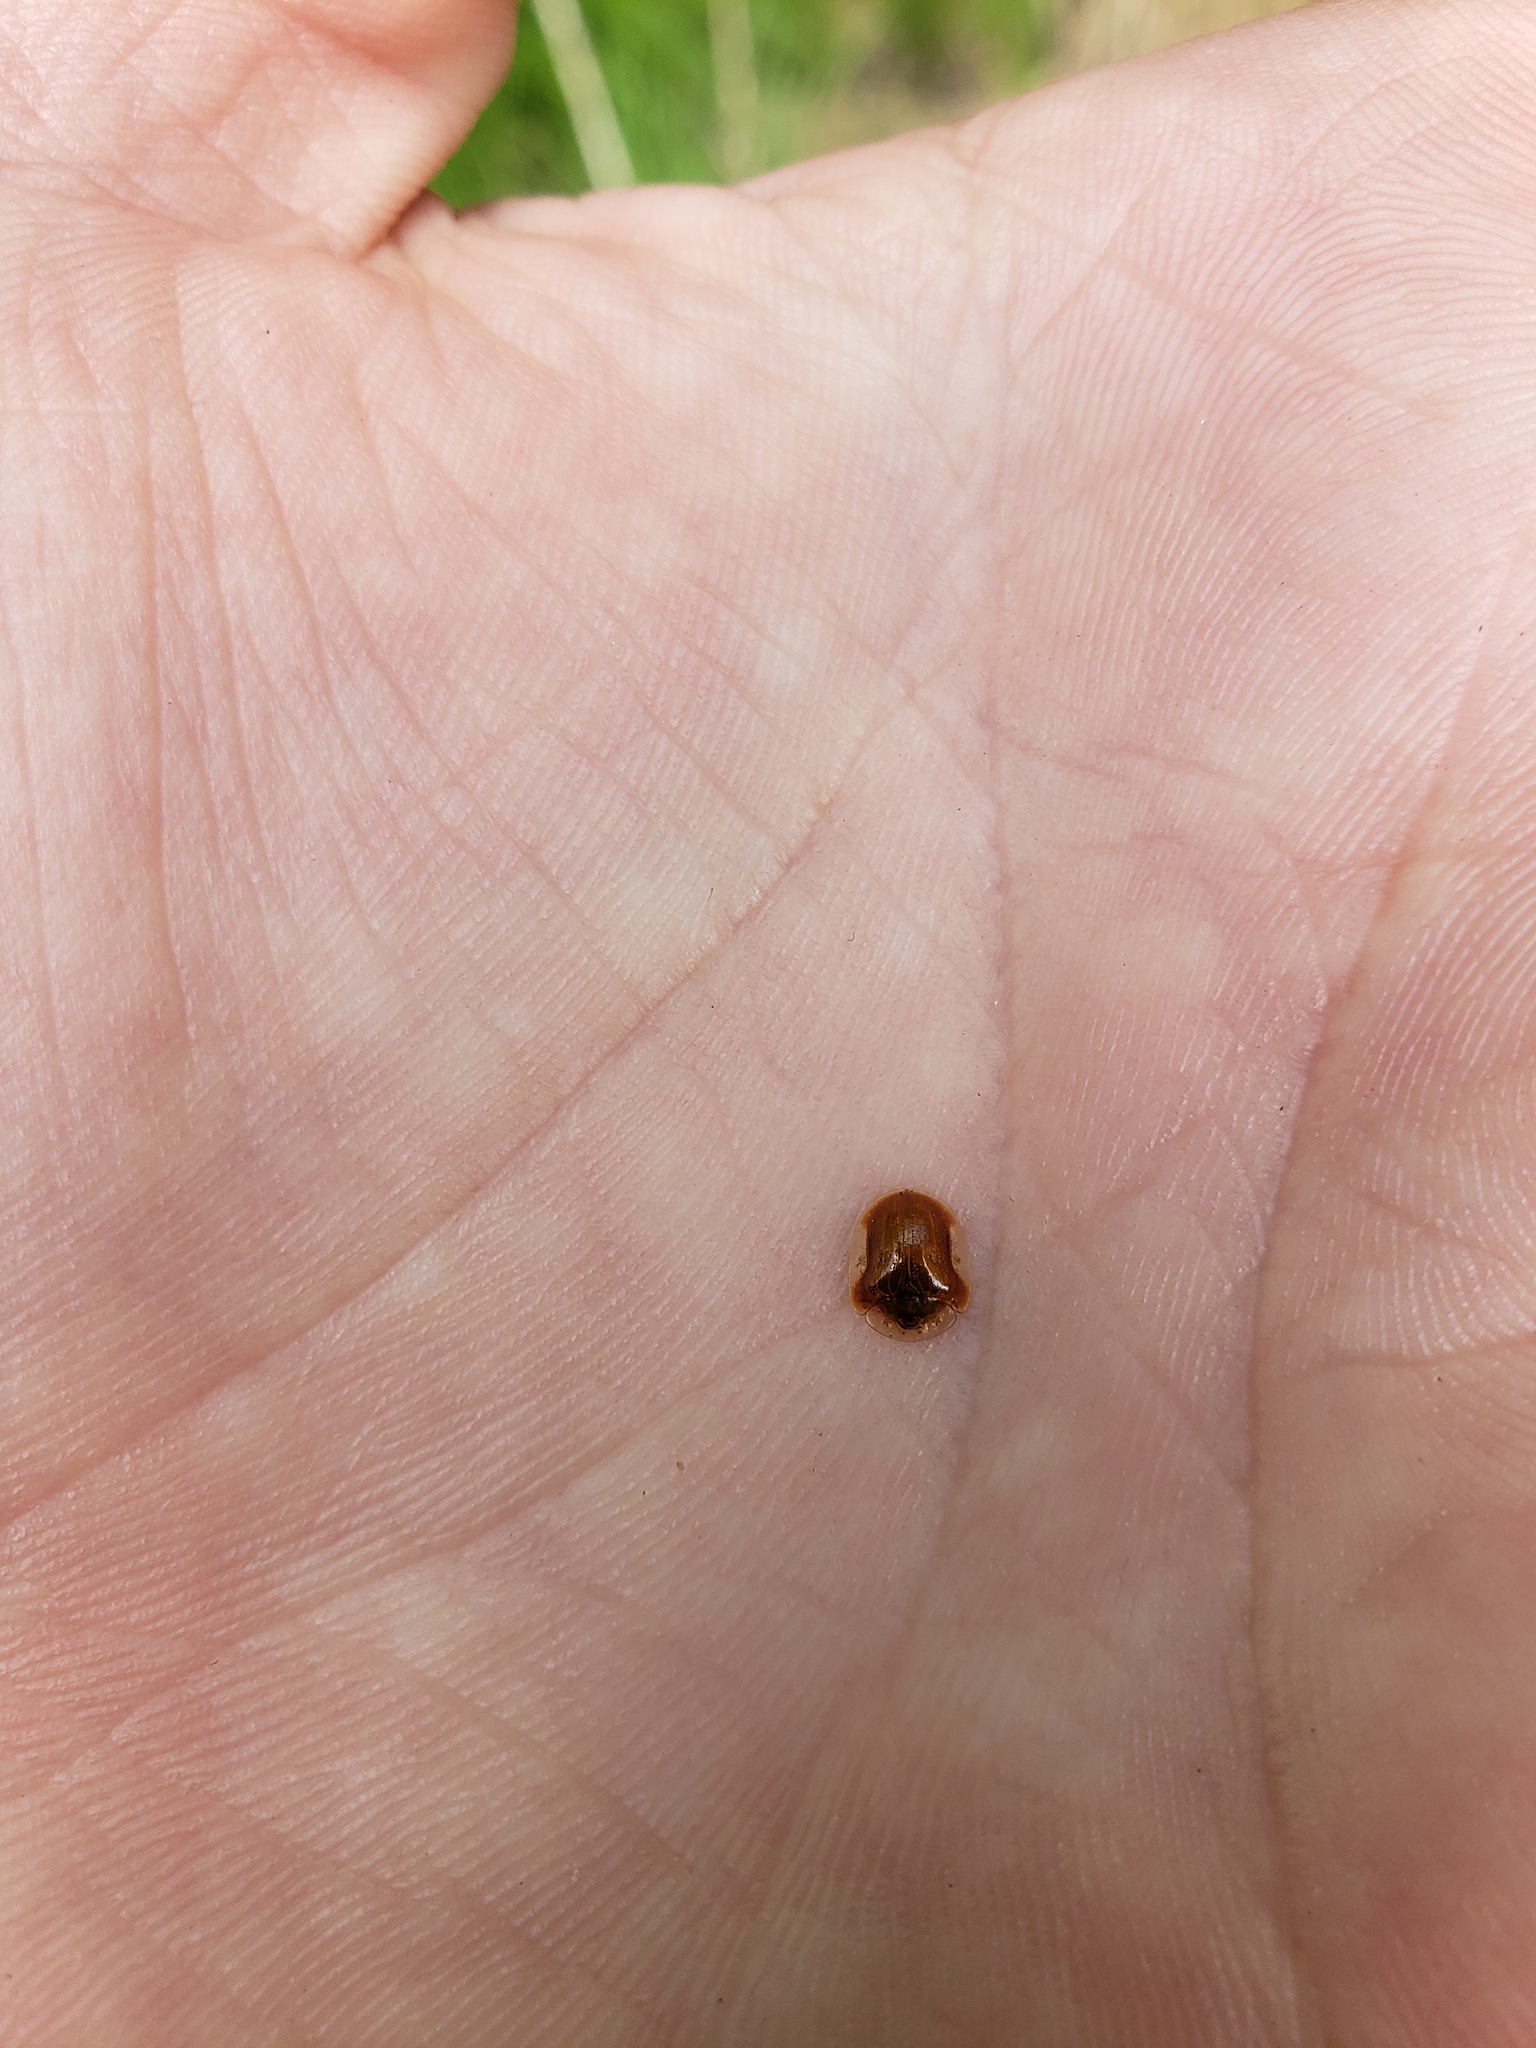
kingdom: Animalia
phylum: Arthropoda
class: Insecta
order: Coleoptera
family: Chrysomelidae
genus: Charidotella
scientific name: Charidotella purpurata
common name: Small orange tortoise beetle
